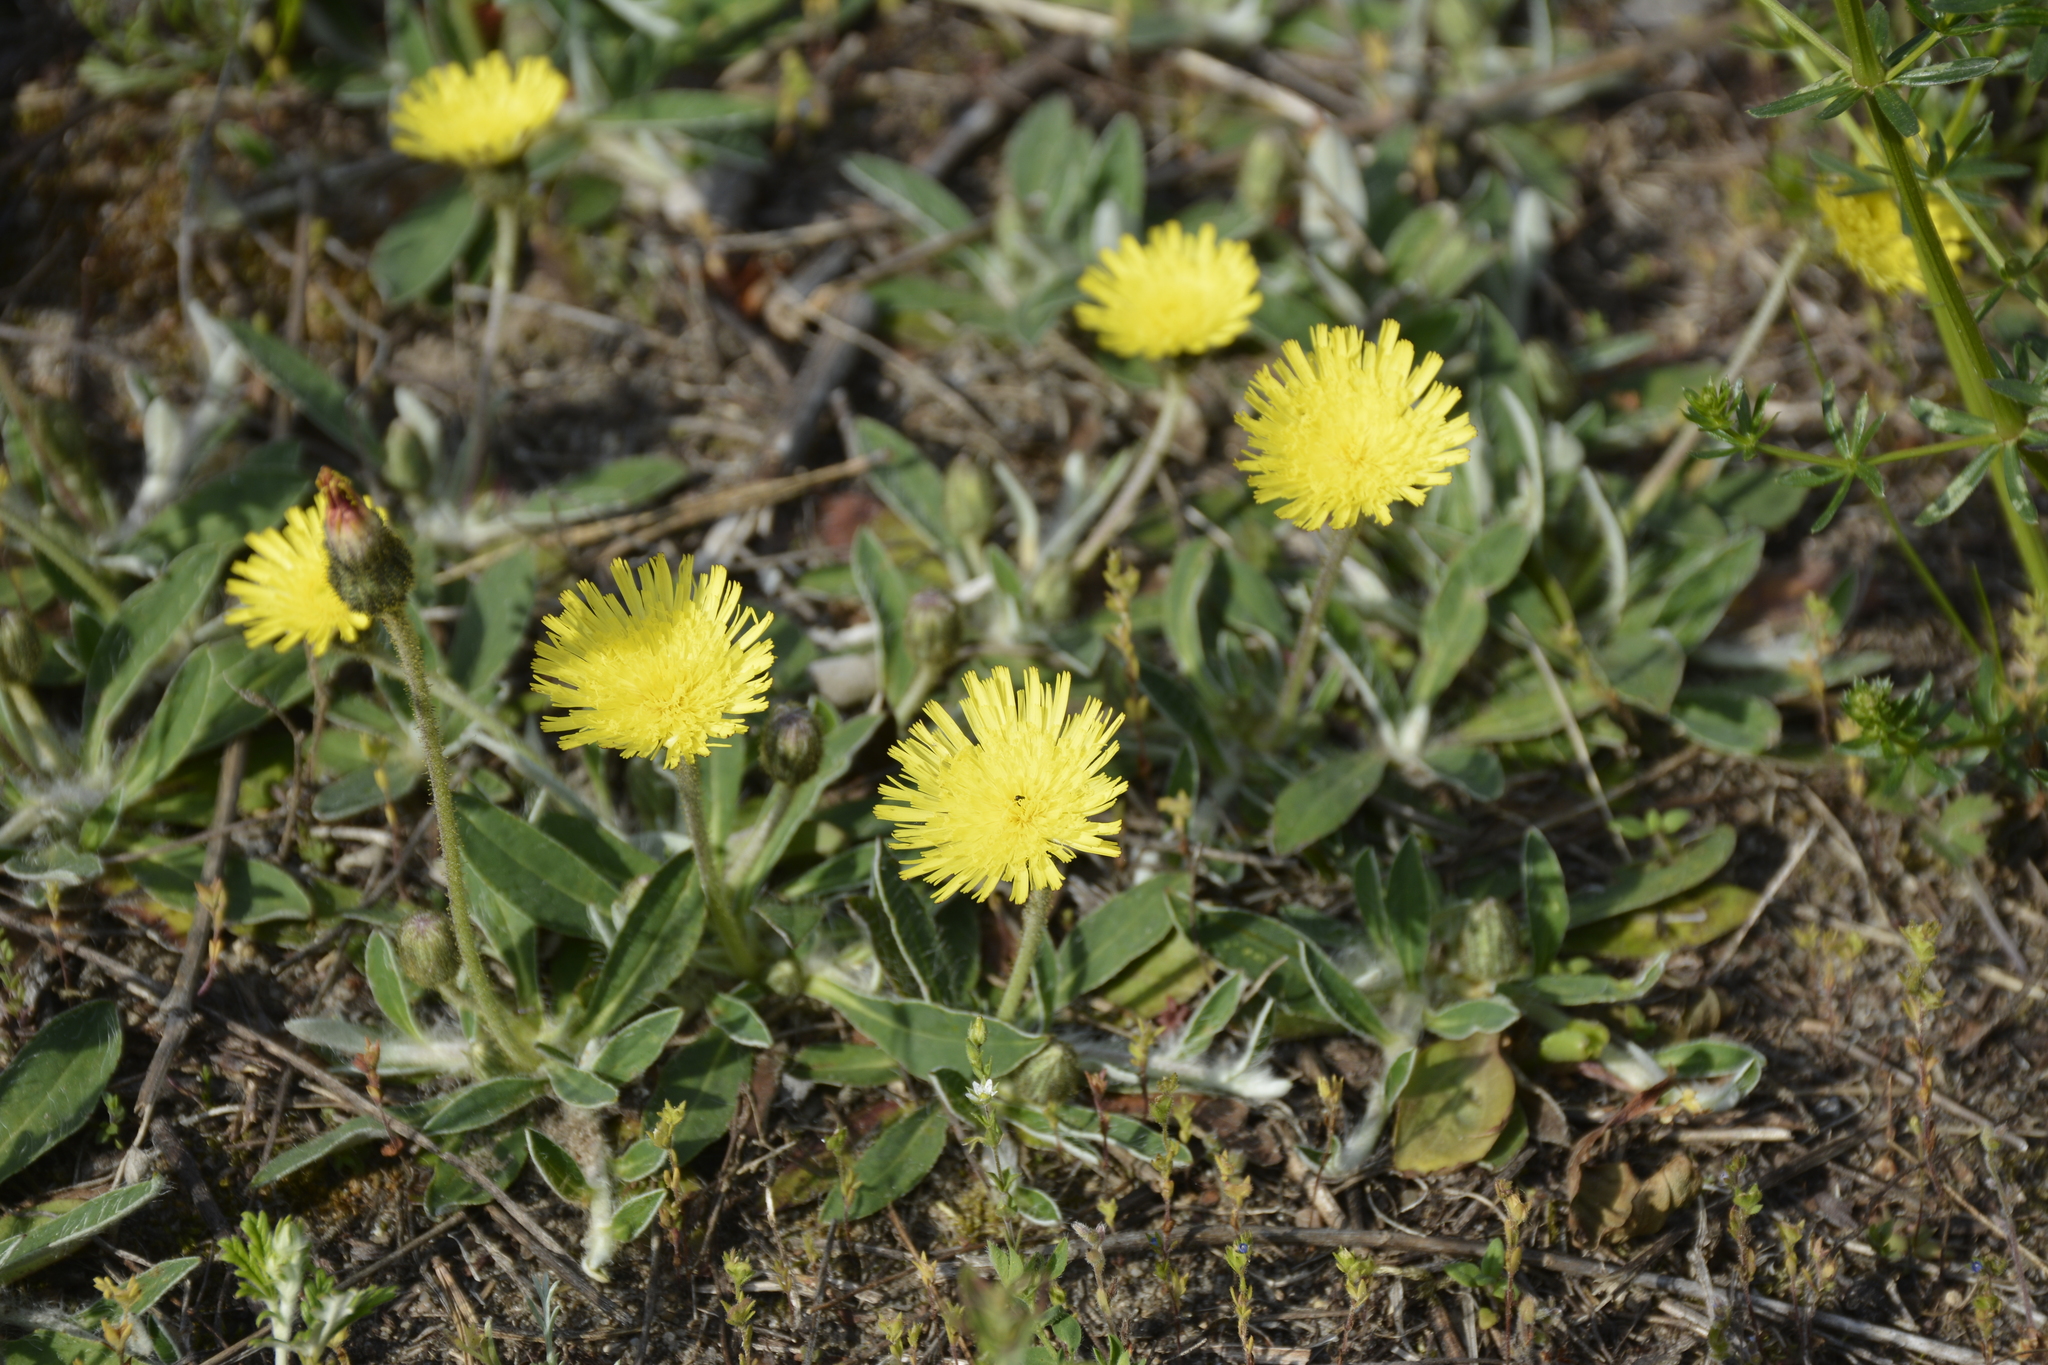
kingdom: Plantae
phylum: Tracheophyta
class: Magnoliopsida
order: Asterales
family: Asteraceae
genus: Pilosella
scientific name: Pilosella officinarum
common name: Mouse-ear hawkweed
